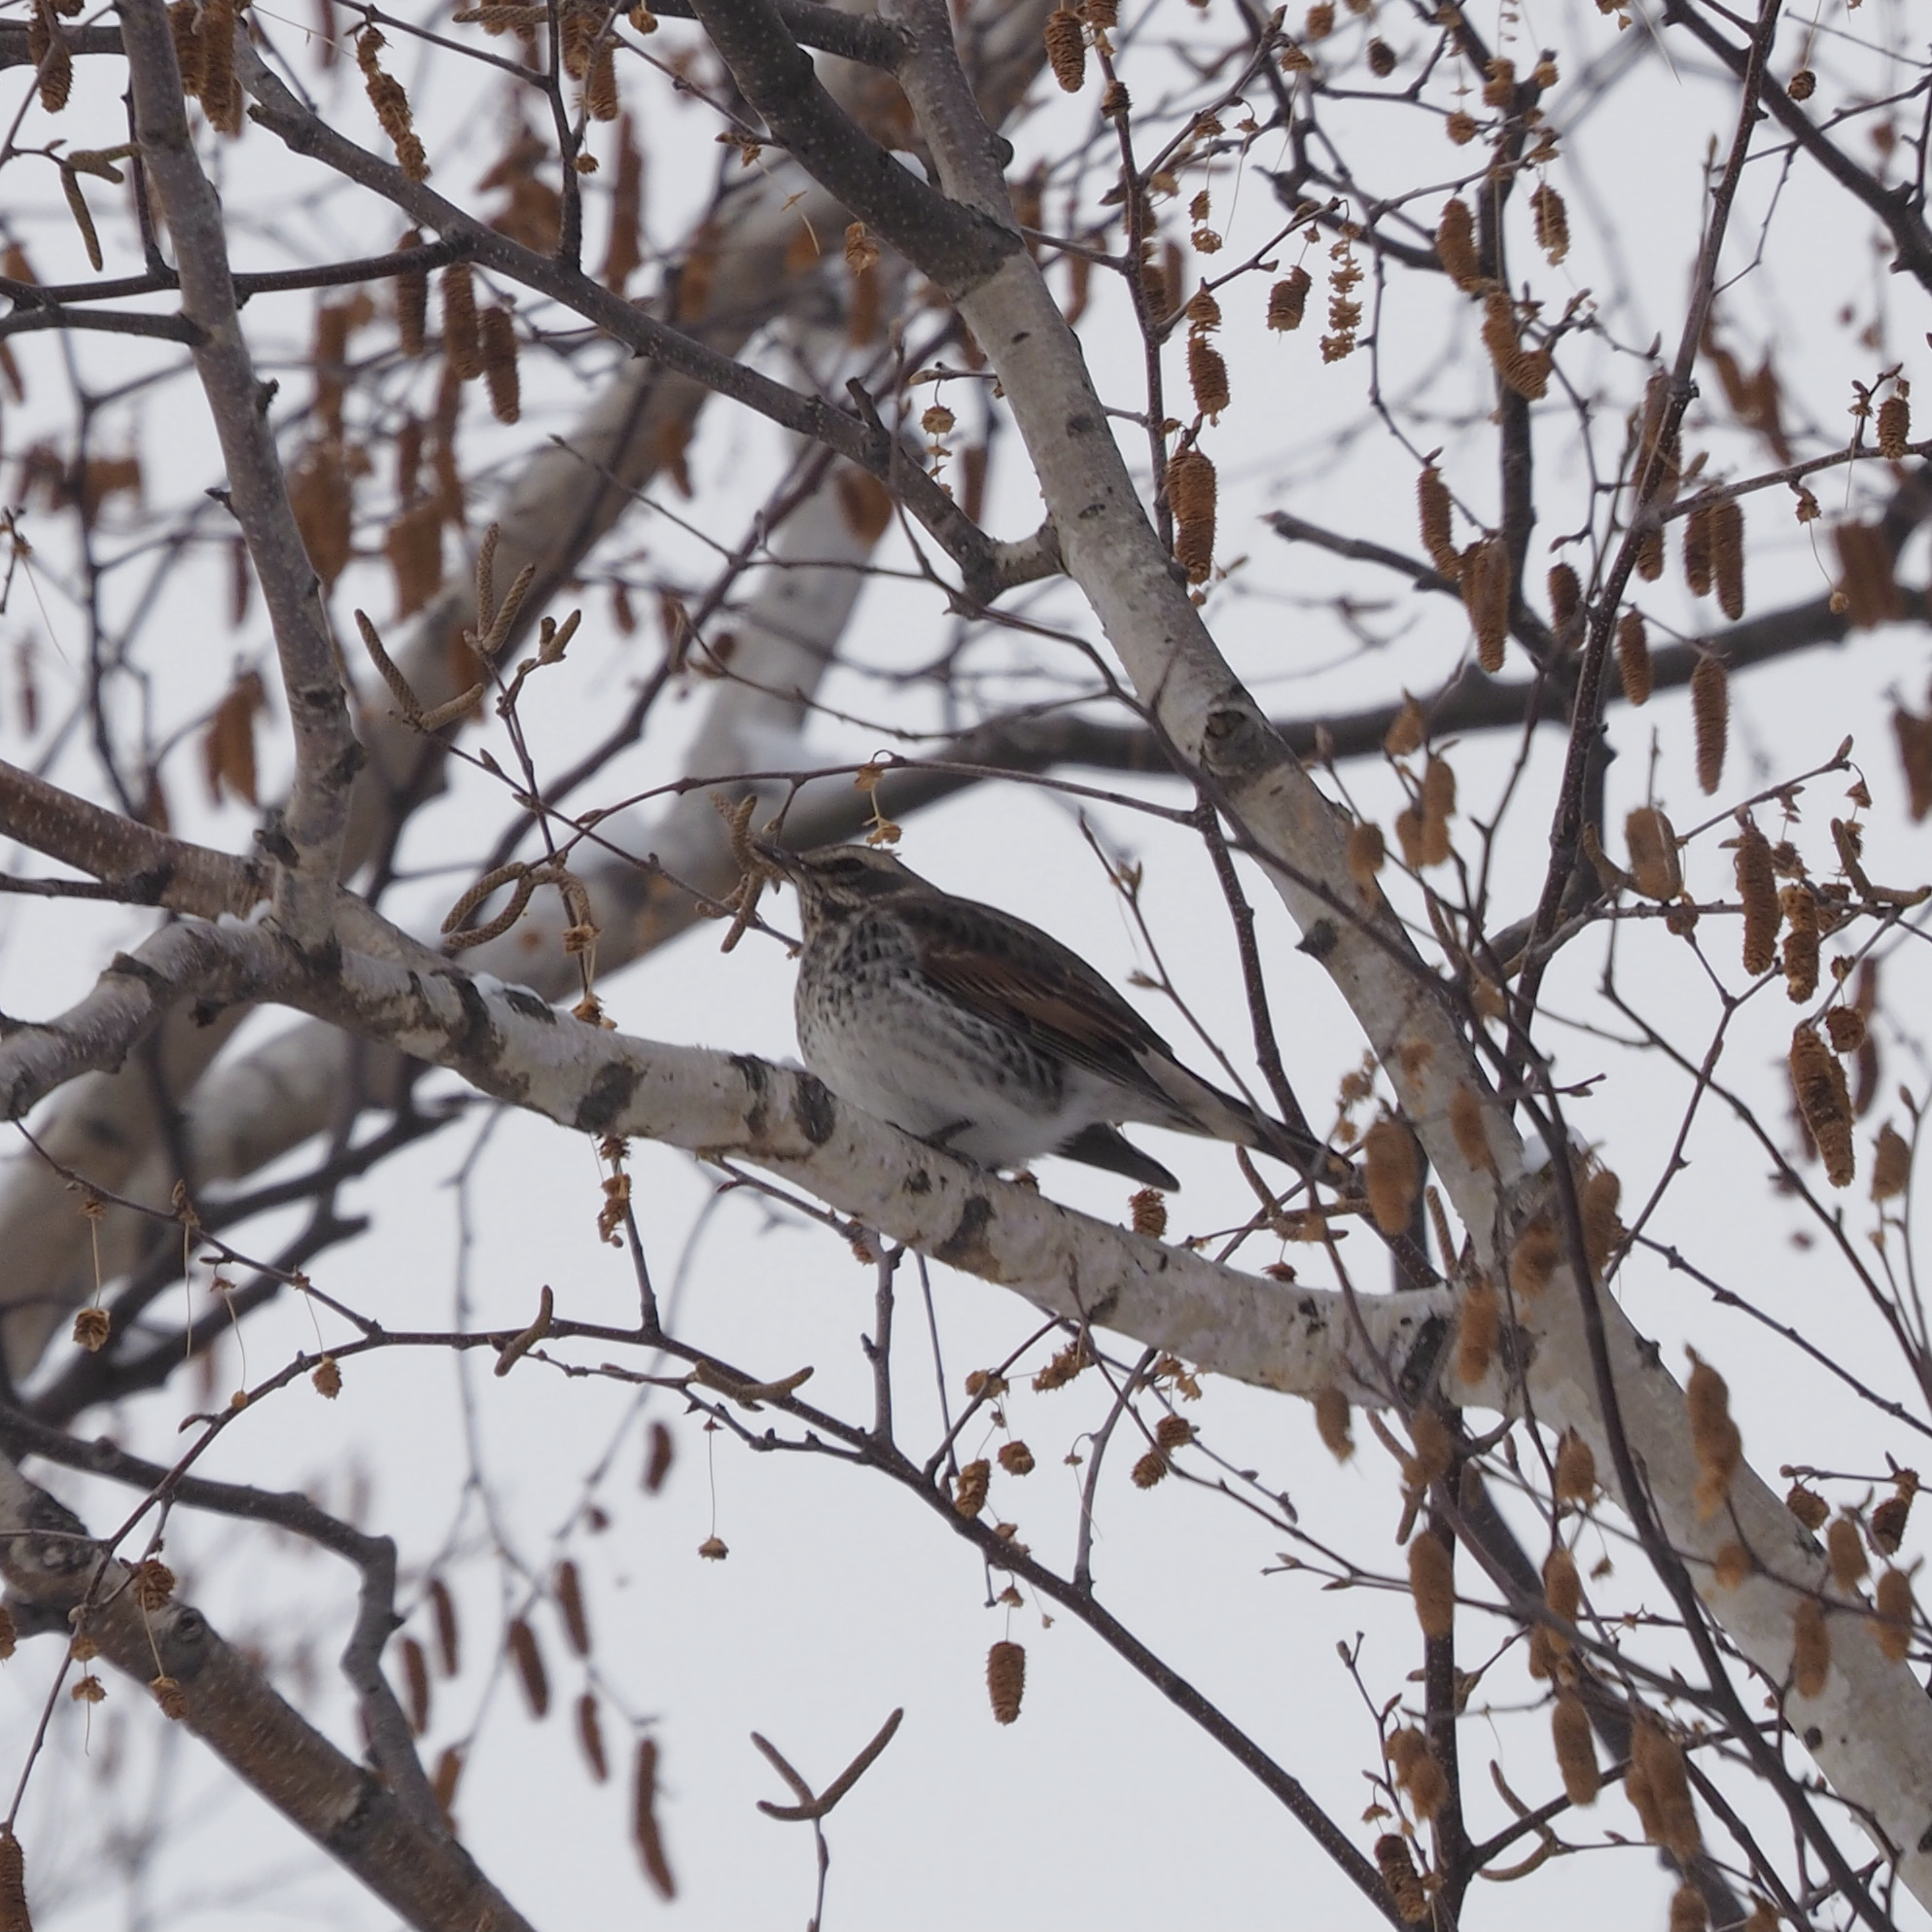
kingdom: Animalia
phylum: Chordata
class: Aves
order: Passeriformes
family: Turdidae
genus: Turdus
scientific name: Turdus eunomus
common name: Dusky thrush
